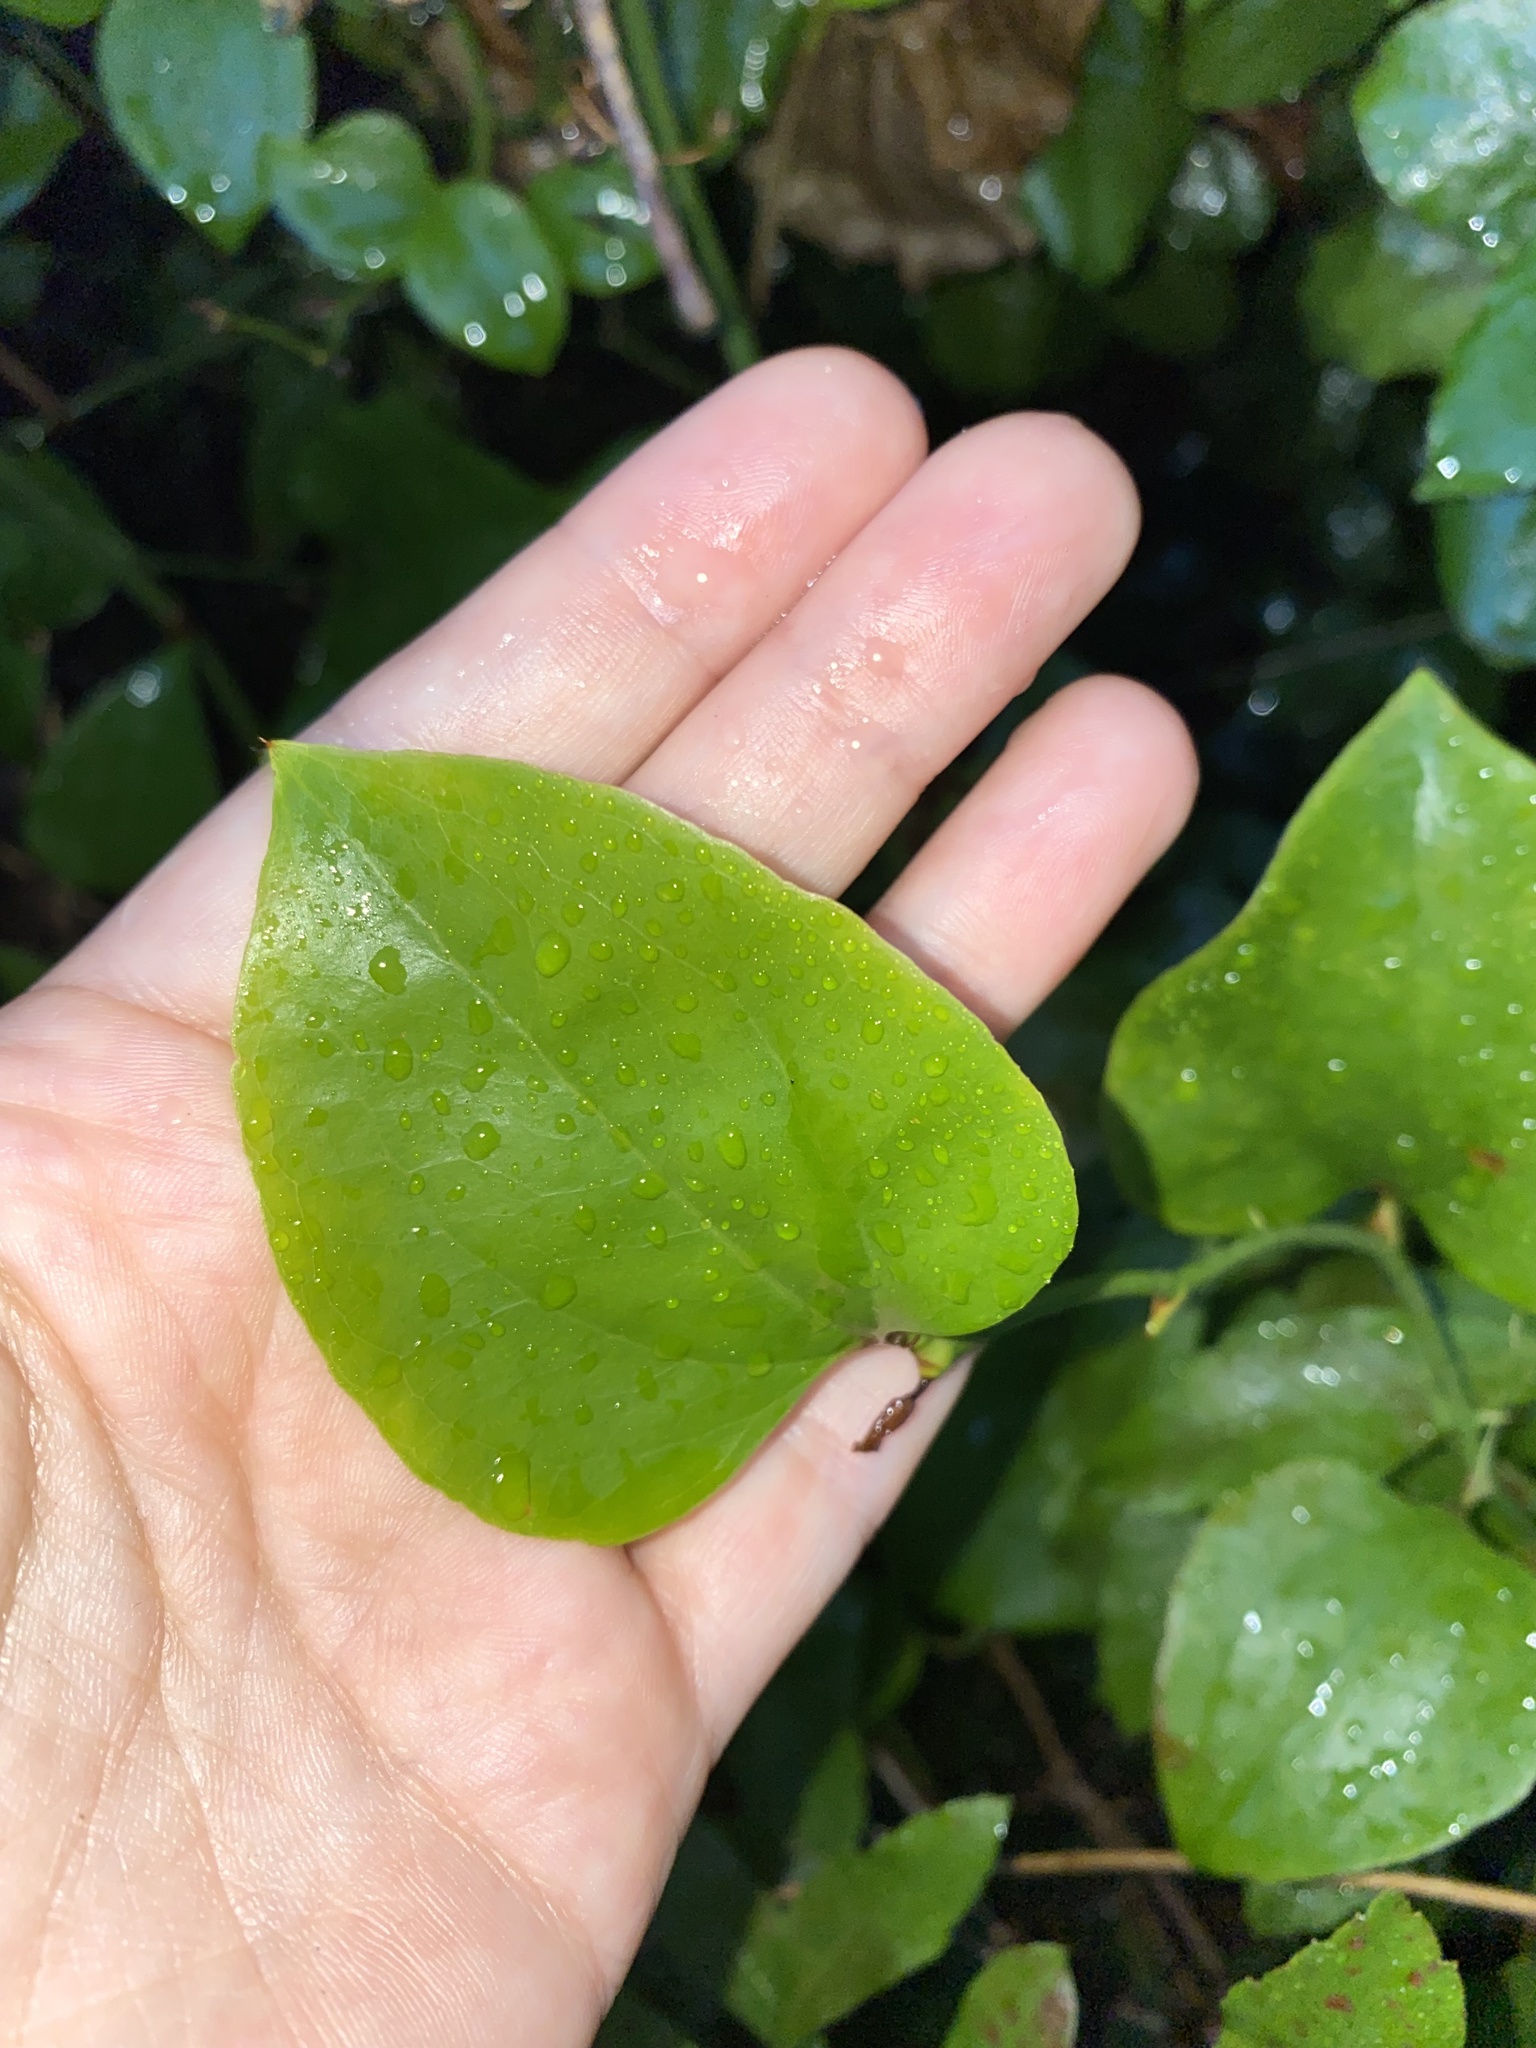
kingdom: Plantae
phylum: Tracheophyta
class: Liliopsida
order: Liliales
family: Smilacaceae
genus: Smilax
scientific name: Smilax rotundifolia
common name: Bullbriar
